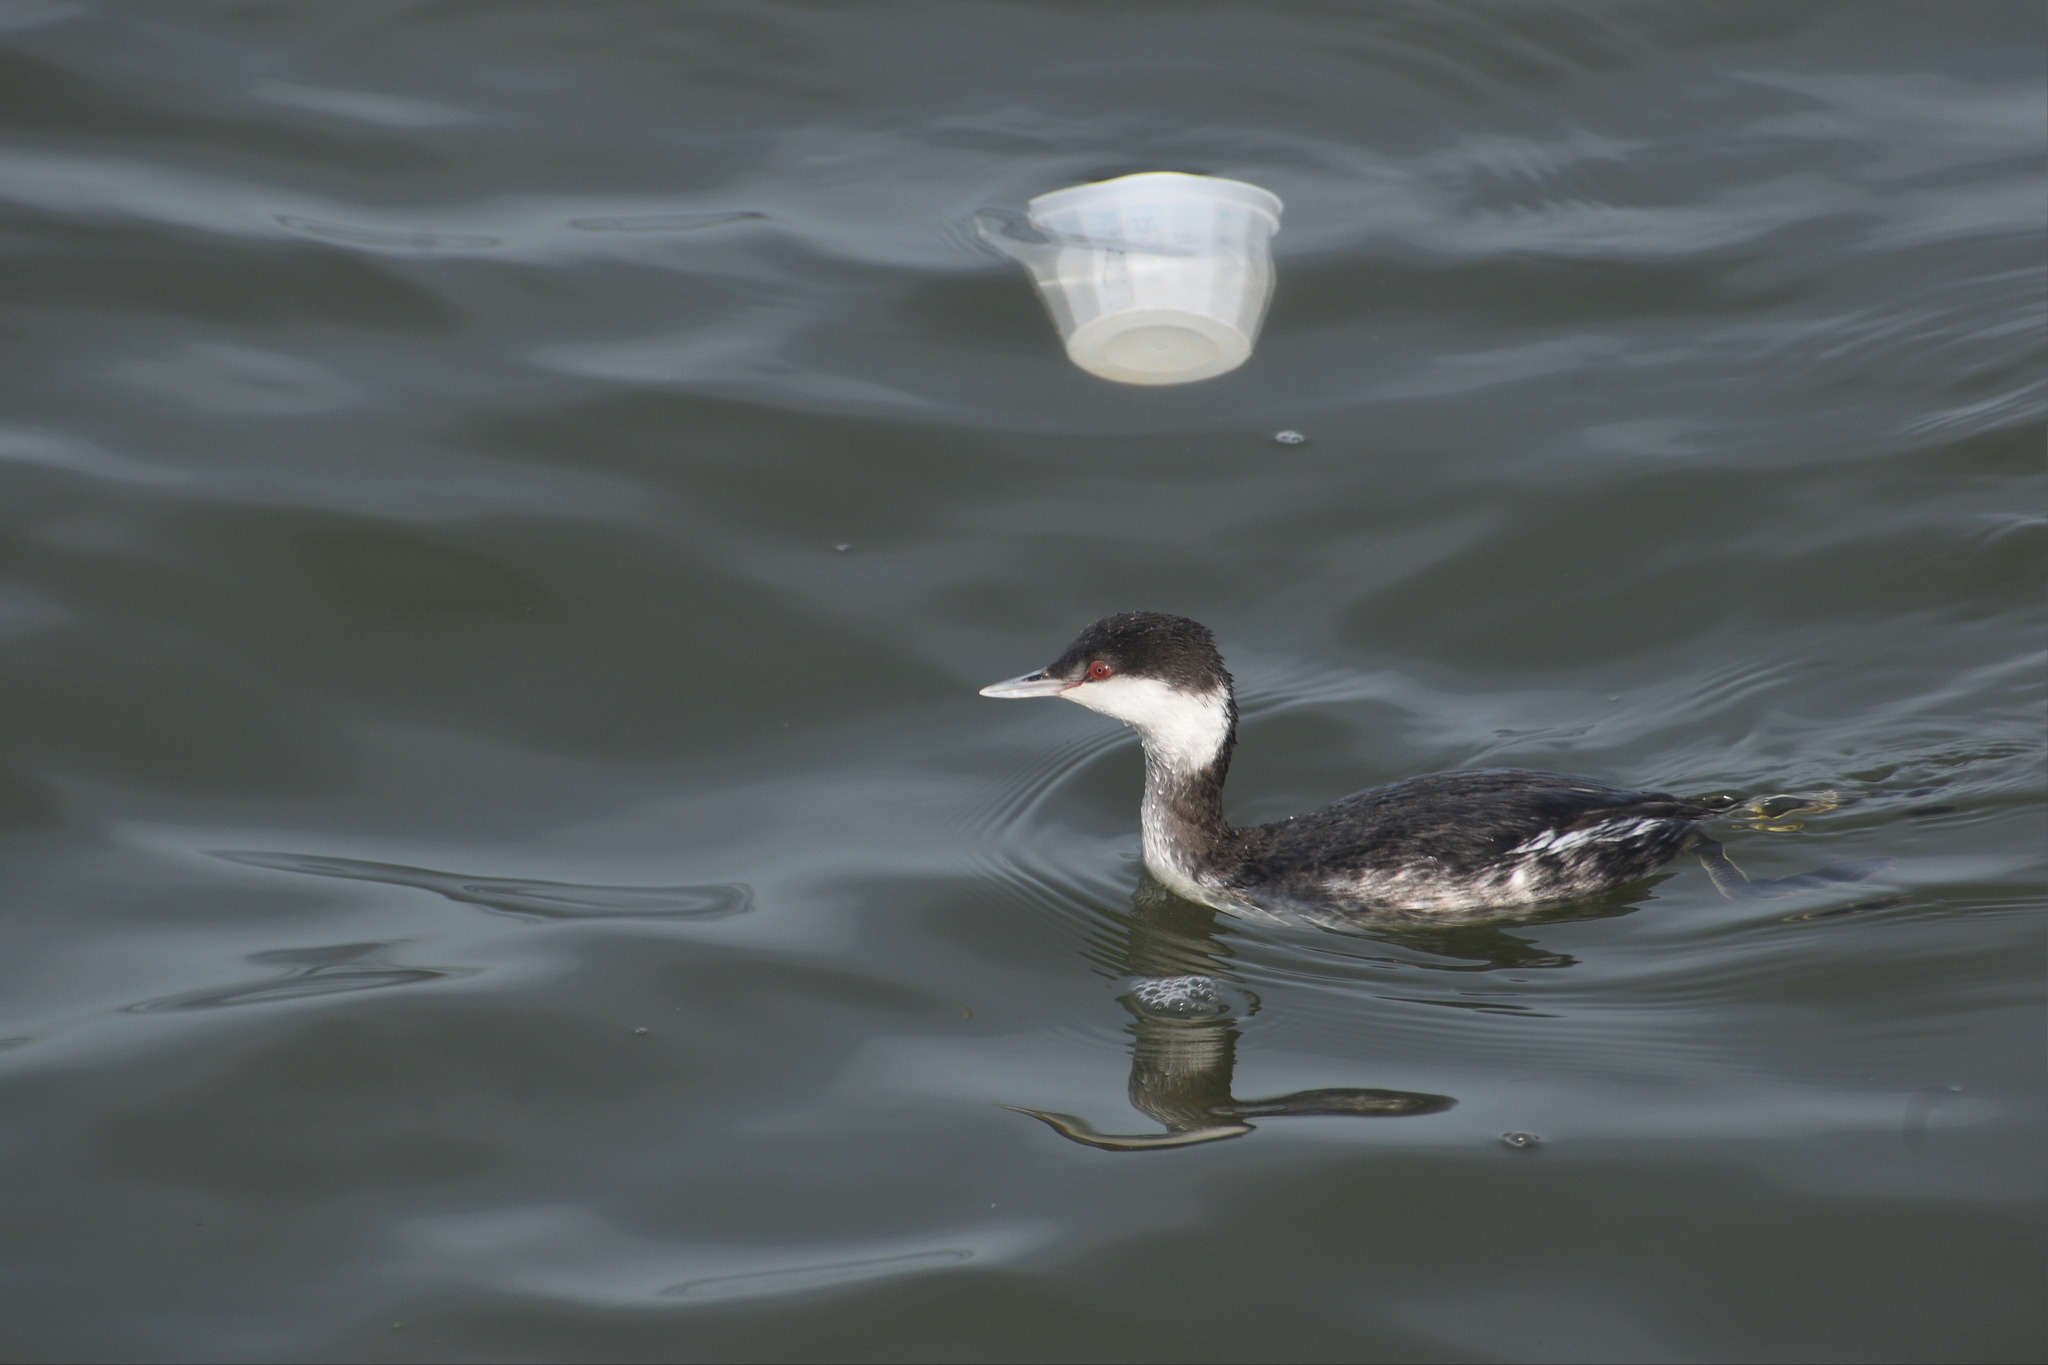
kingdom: Animalia
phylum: Chordata
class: Aves
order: Podicipediformes
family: Podicipedidae
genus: Podiceps
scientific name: Podiceps auritus
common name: Horned grebe
